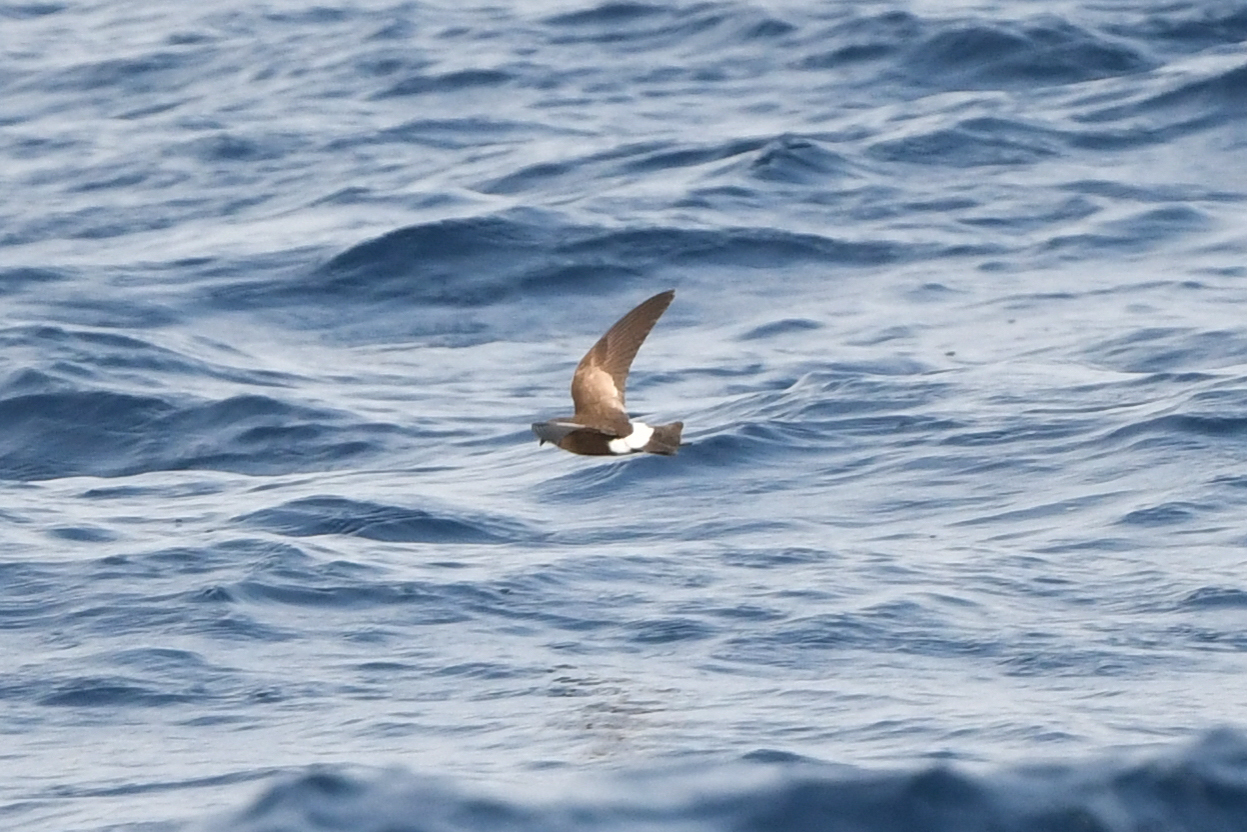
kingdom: Animalia
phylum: Chordata
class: Aves
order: Procellariiformes
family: Hydrobatidae
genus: Oceanites
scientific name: Oceanites oceanicus
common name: Wilson's storm petrel
